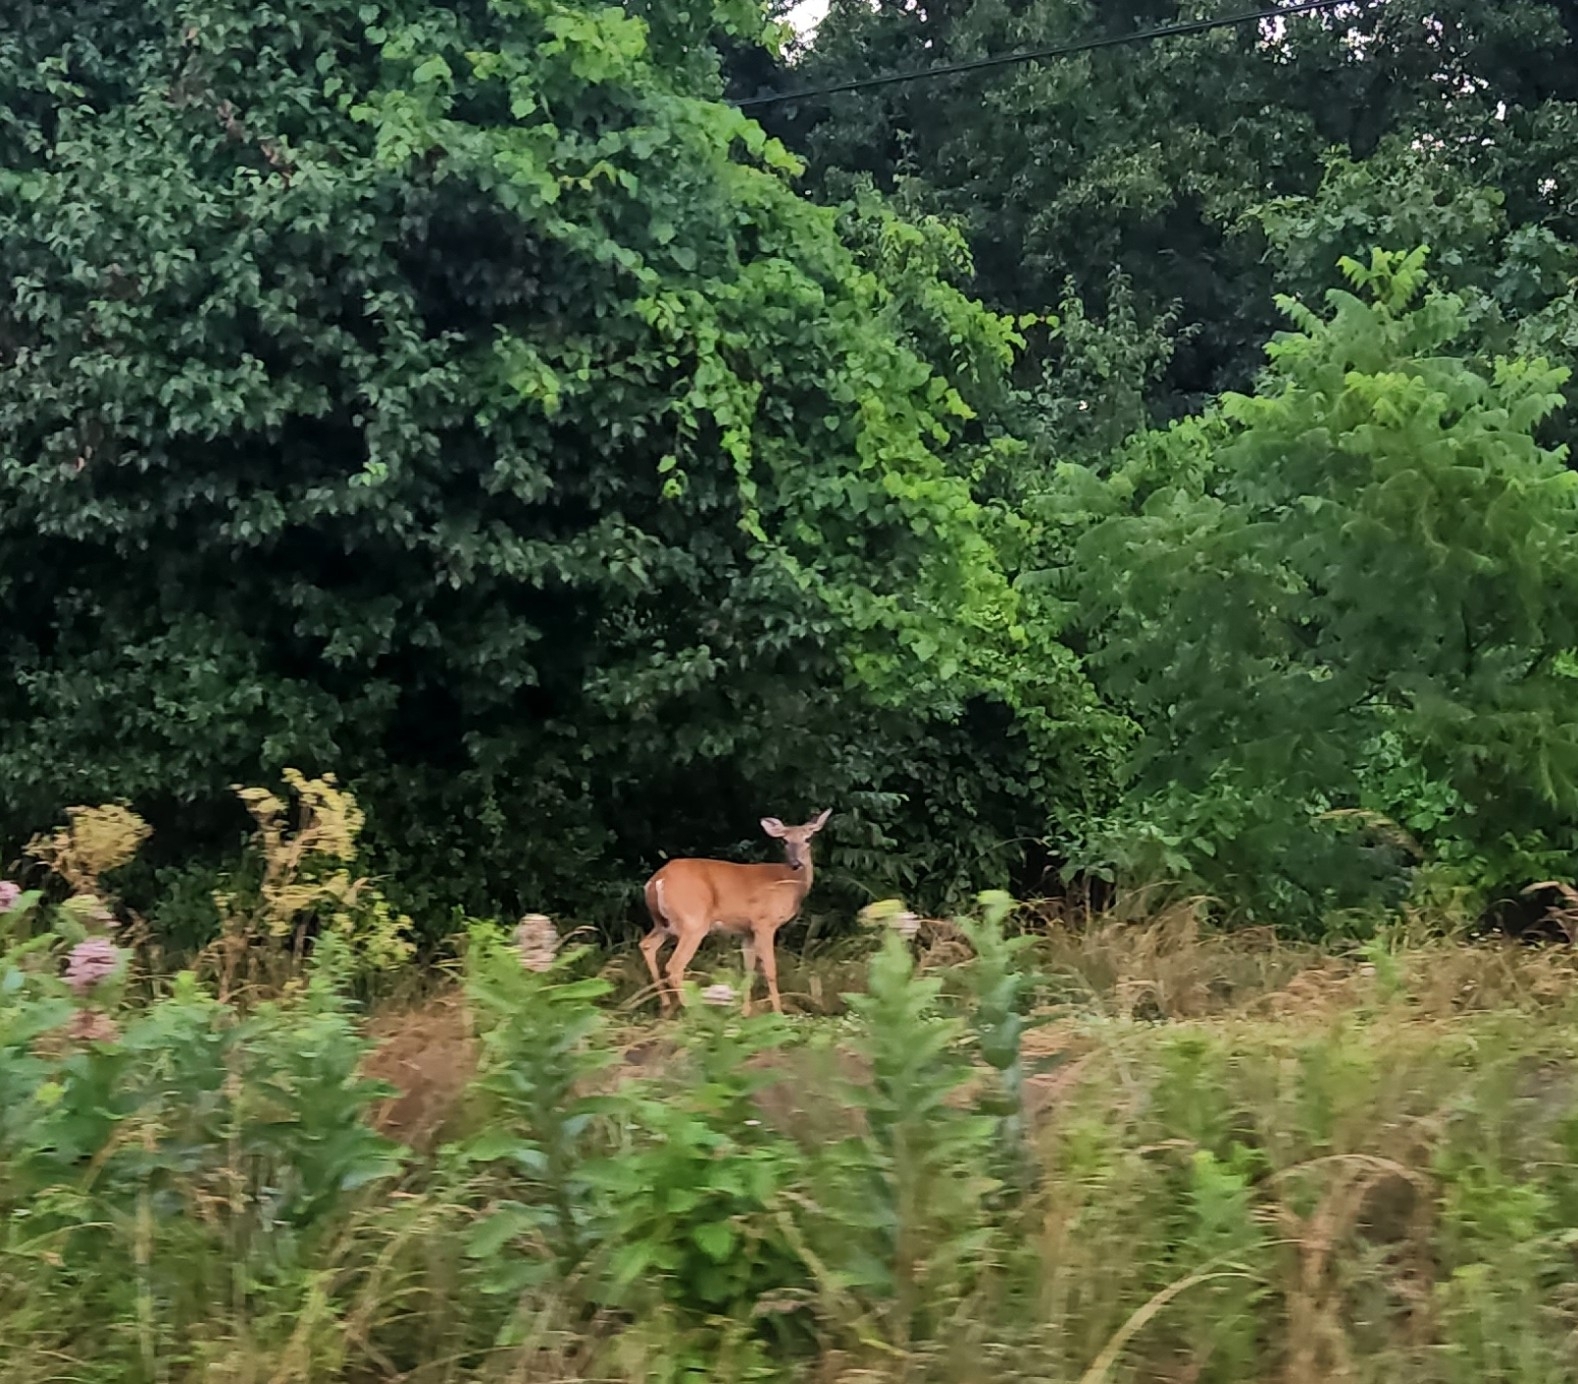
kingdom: Animalia
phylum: Chordata
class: Mammalia
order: Artiodactyla
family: Cervidae
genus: Odocoileus
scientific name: Odocoileus virginianus
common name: White-tailed deer
